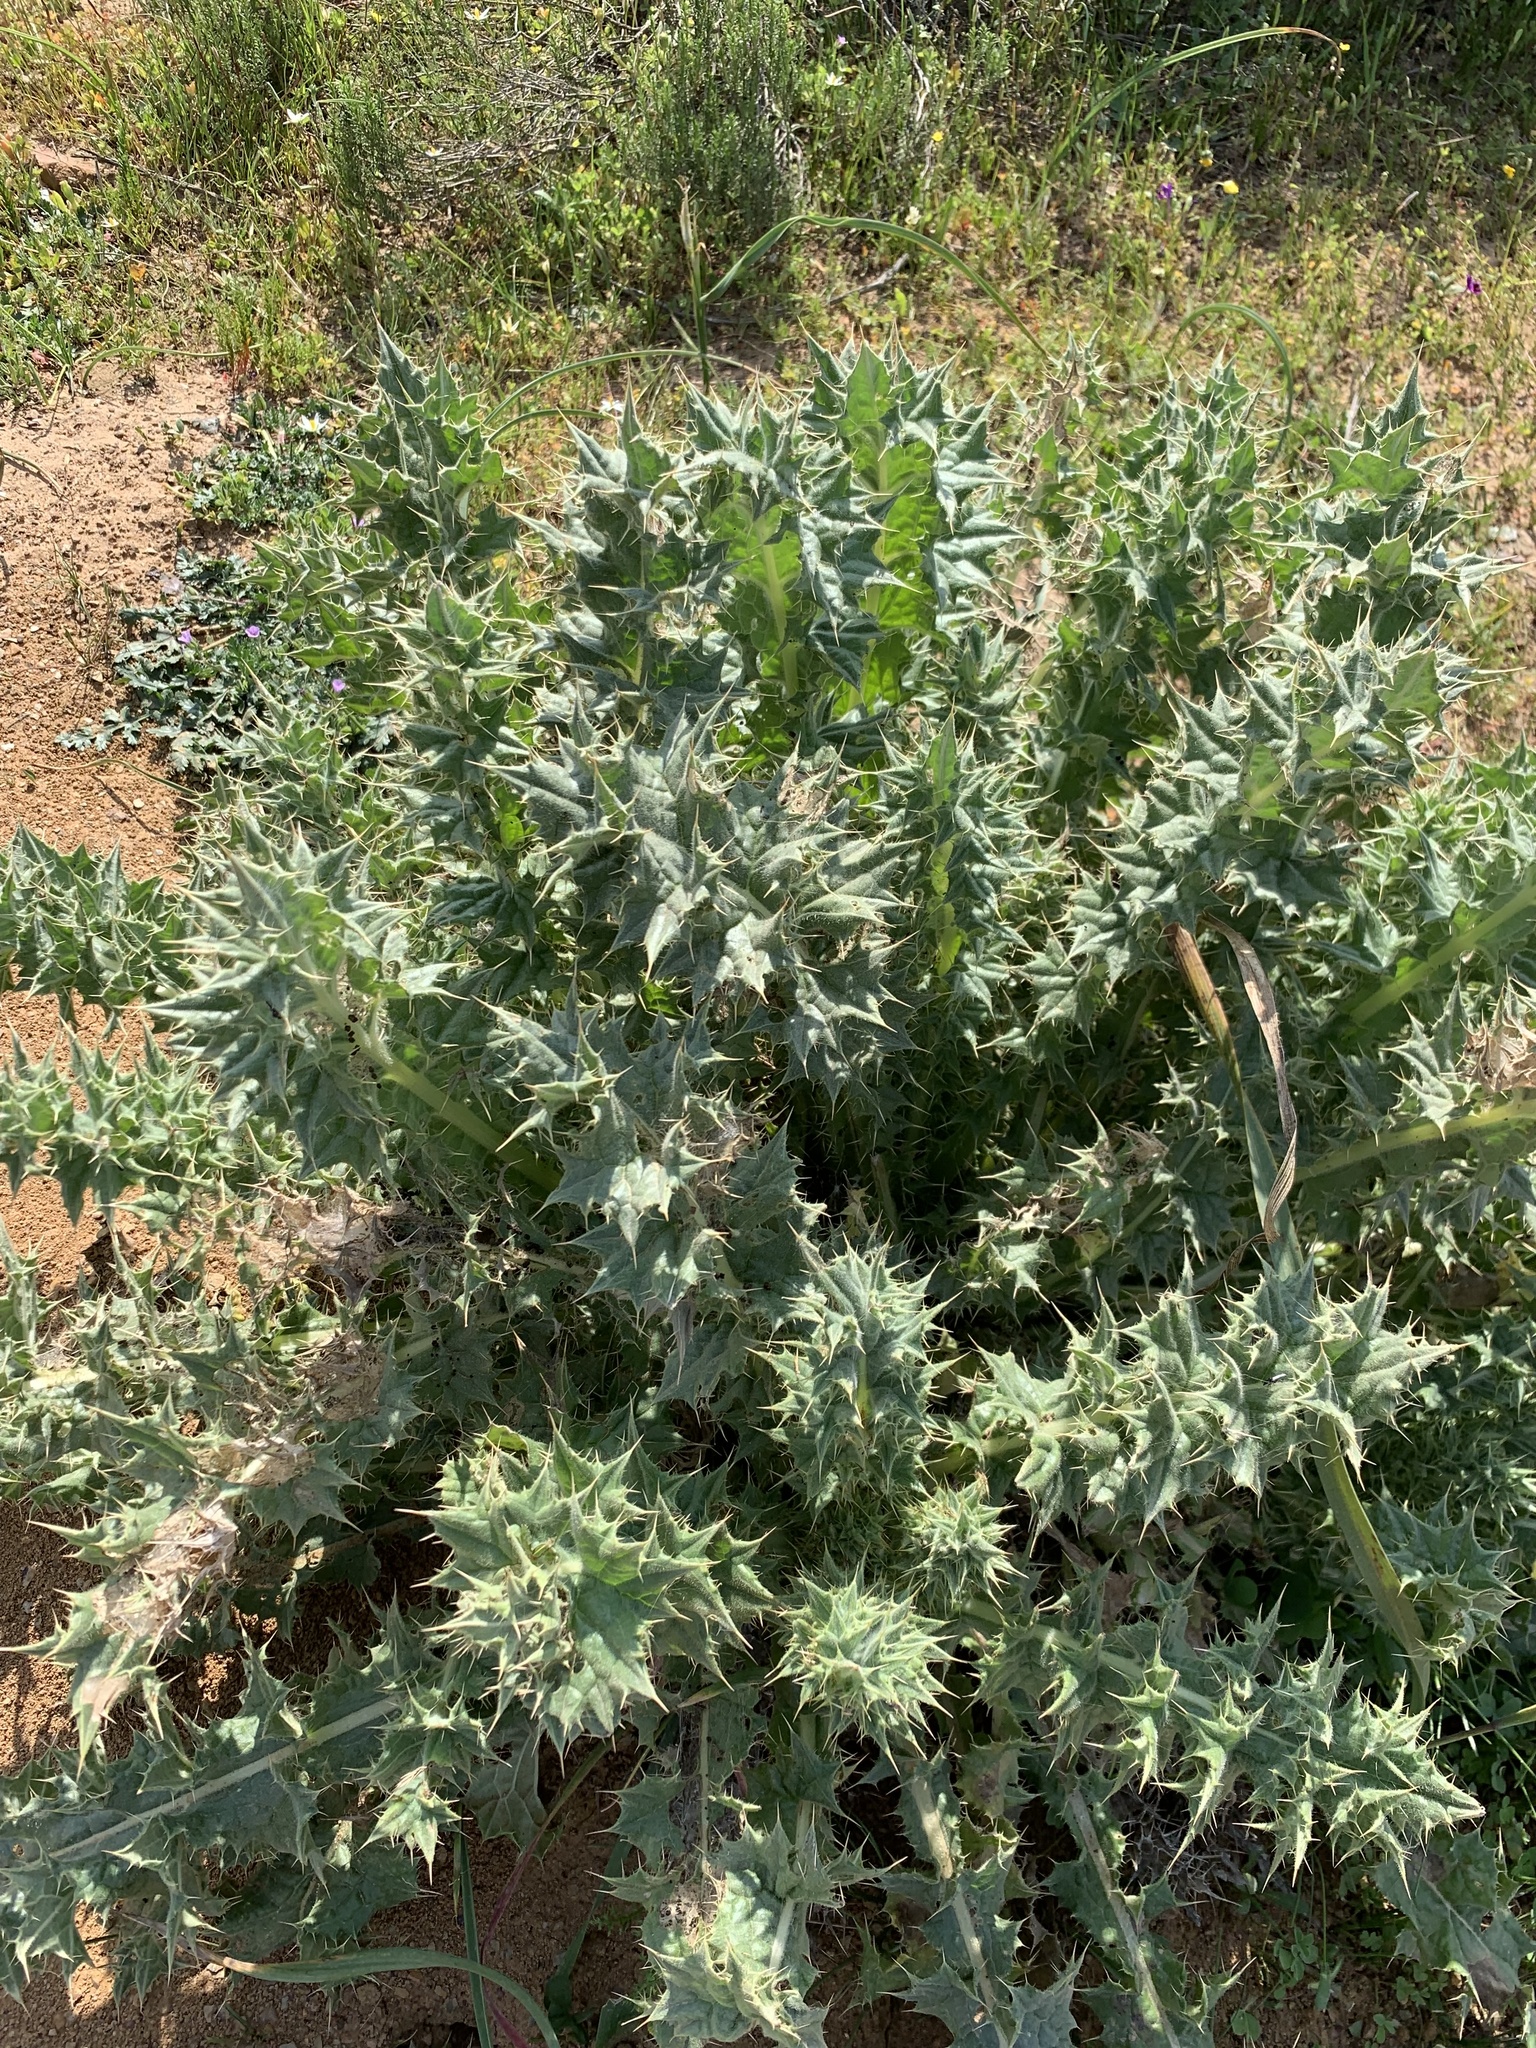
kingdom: Plantae
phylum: Tracheophyta
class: Magnoliopsida
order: Asterales
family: Asteraceae
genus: Berkheya
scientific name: Berkheya glabrata
